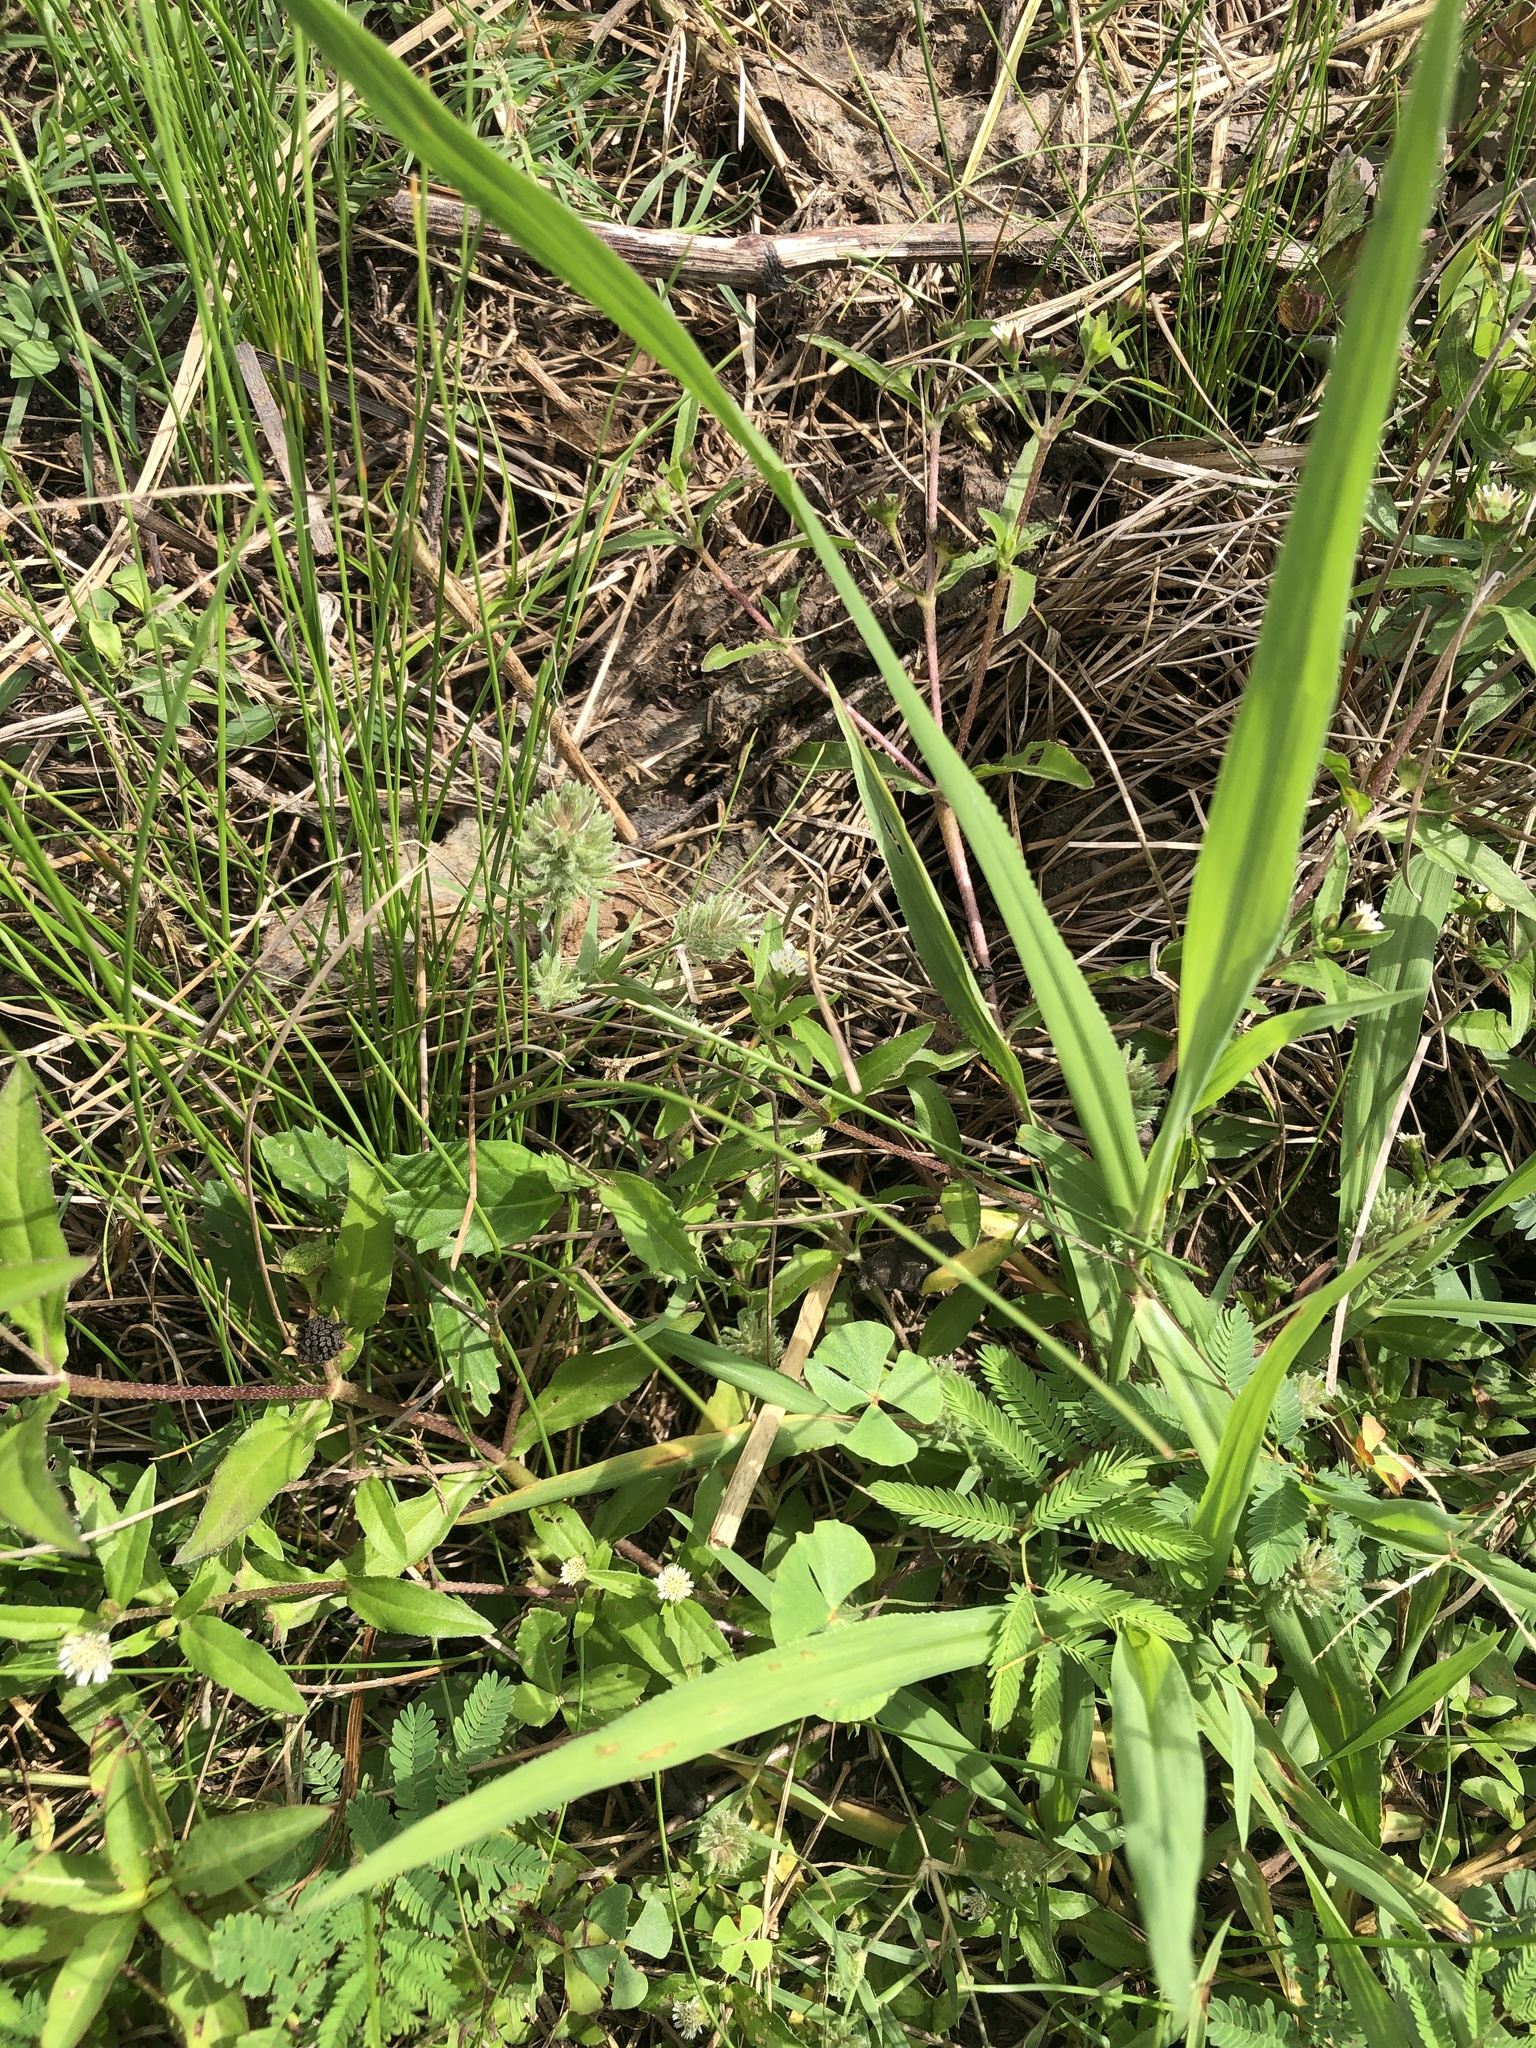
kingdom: Plantae
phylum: Tracheophyta
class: Liliopsida
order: Poales
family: Poaceae
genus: Eragrostis
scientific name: Eragrostis reptans
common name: Creeping love grass
